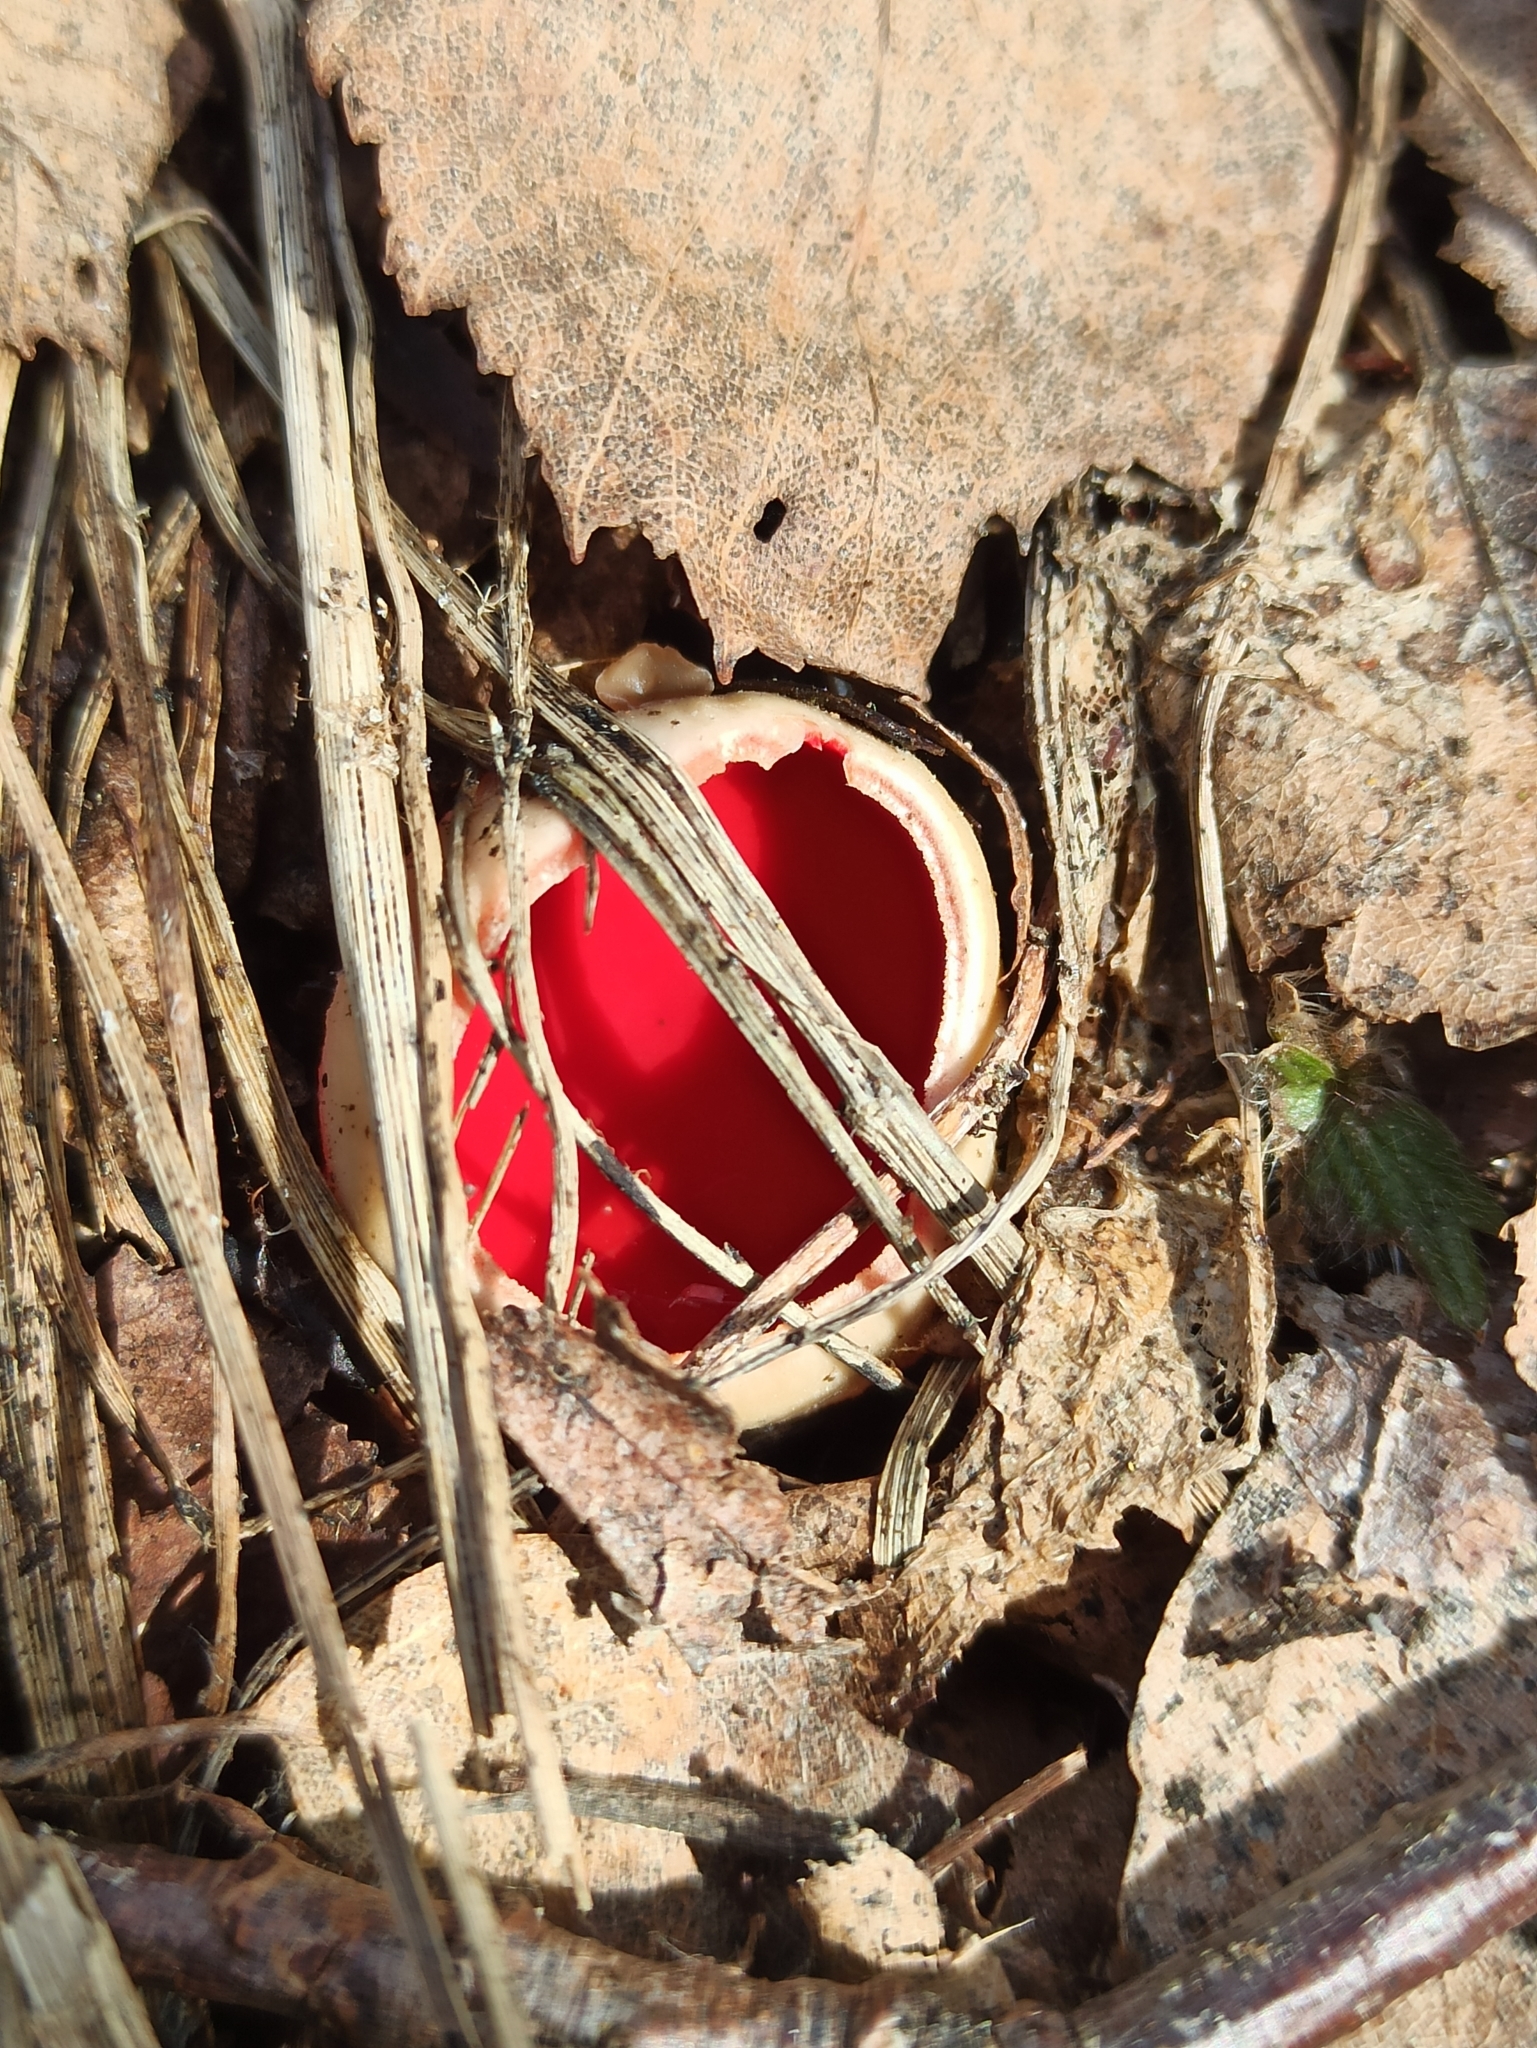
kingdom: Fungi
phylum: Ascomycota
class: Pezizomycetes
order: Pezizales
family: Sarcoscyphaceae
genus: Sarcoscypha
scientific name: Sarcoscypha austriaca
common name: Scarlet elfcup
